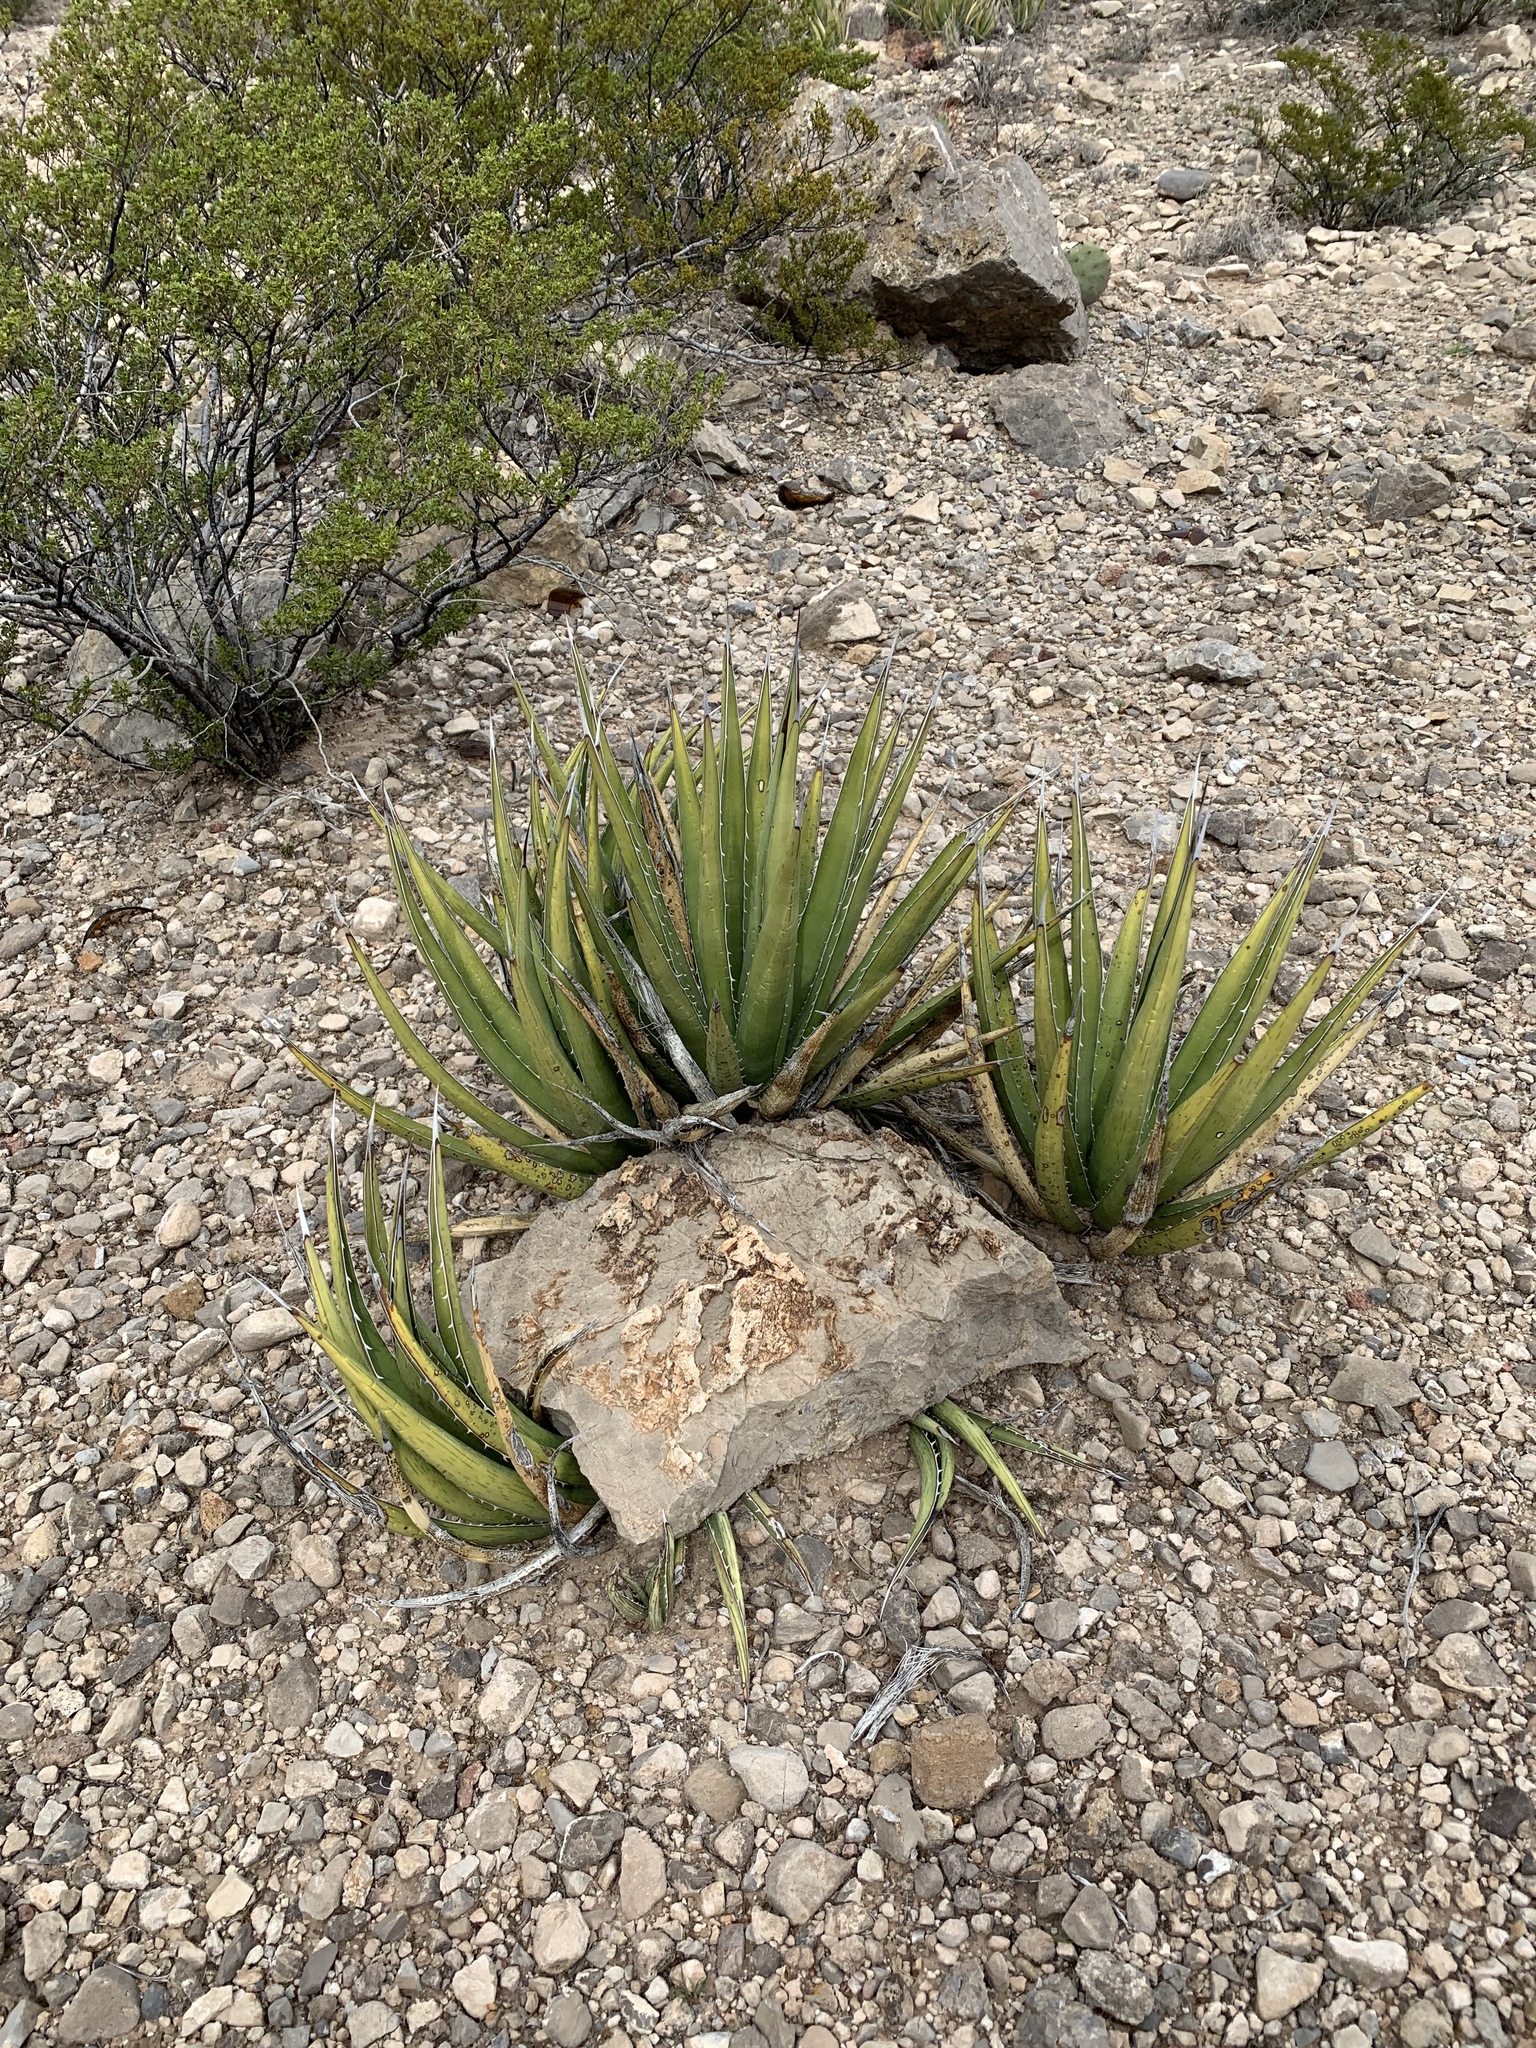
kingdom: Plantae
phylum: Tracheophyta
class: Liliopsida
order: Asparagales
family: Asparagaceae
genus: Agave
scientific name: Agave lechuguilla
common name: Lecheguilla agave
